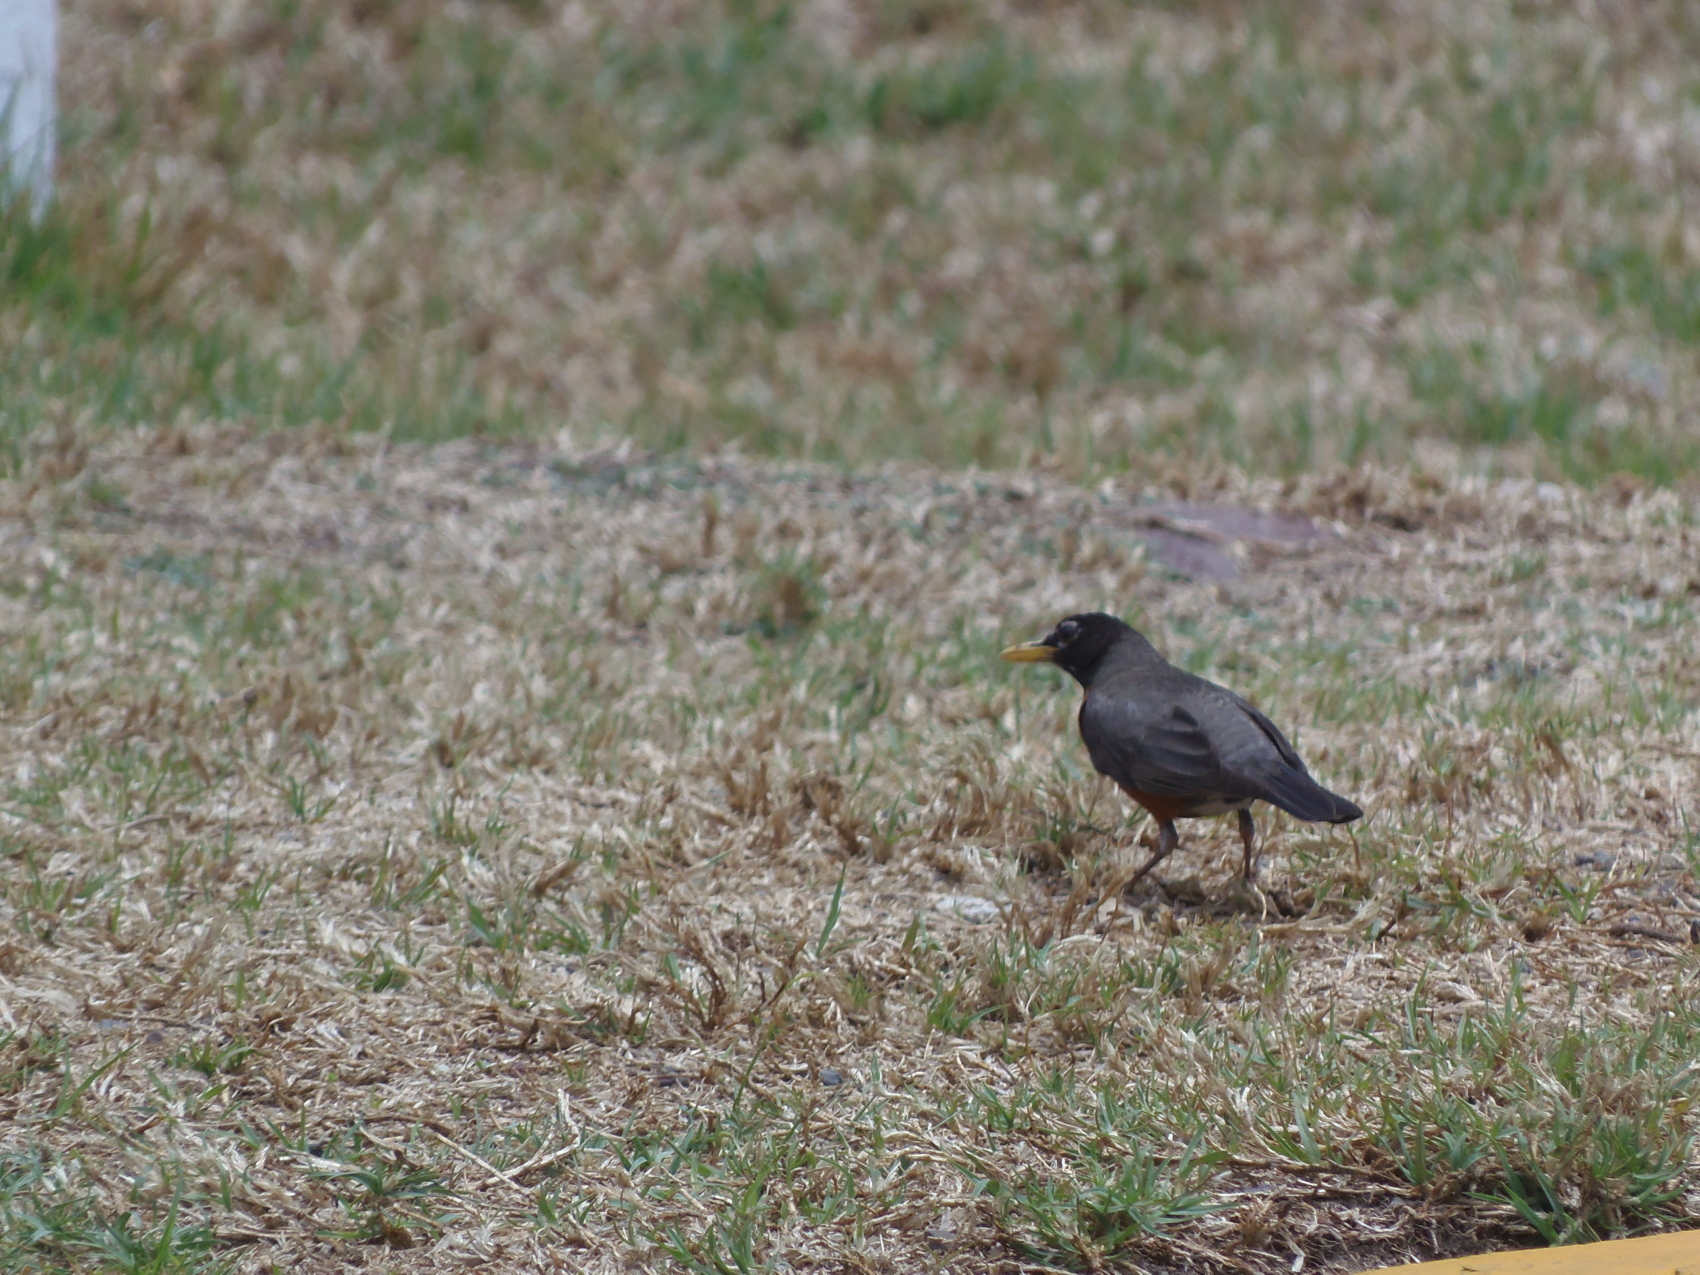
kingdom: Animalia
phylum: Chordata
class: Aves
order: Passeriformes
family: Turdidae
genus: Turdus
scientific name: Turdus migratorius
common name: American robin
